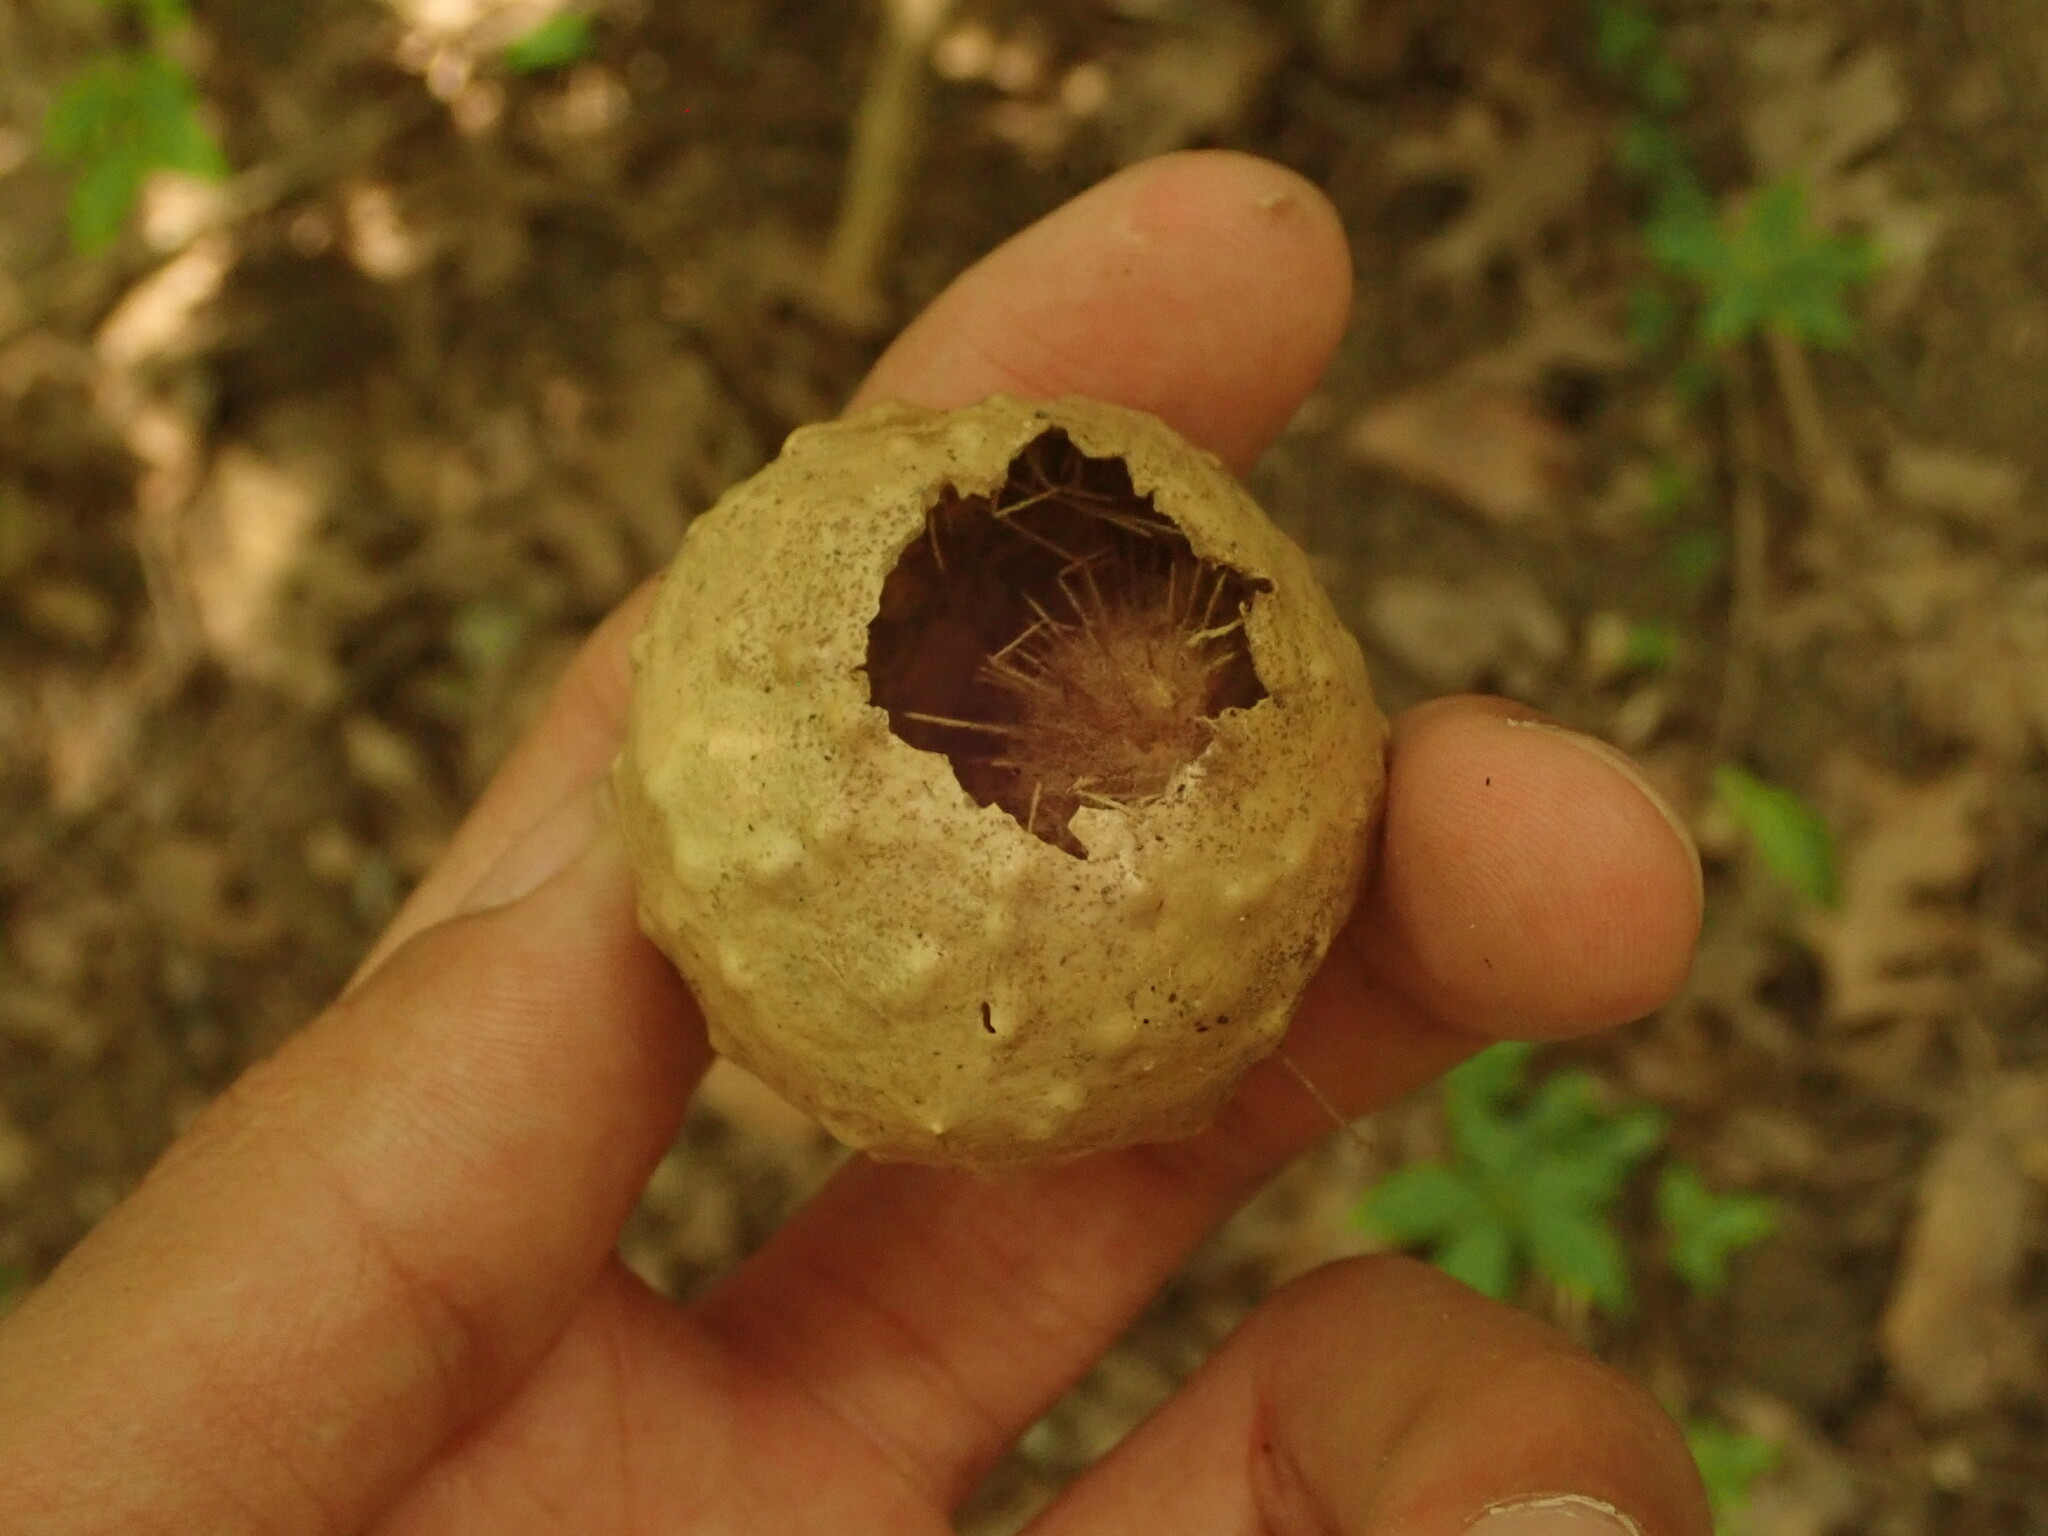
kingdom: Animalia
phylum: Arthropoda
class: Insecta
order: Hymenoptera
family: Cynipidae
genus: Amphibolips
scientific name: Amphibolips
